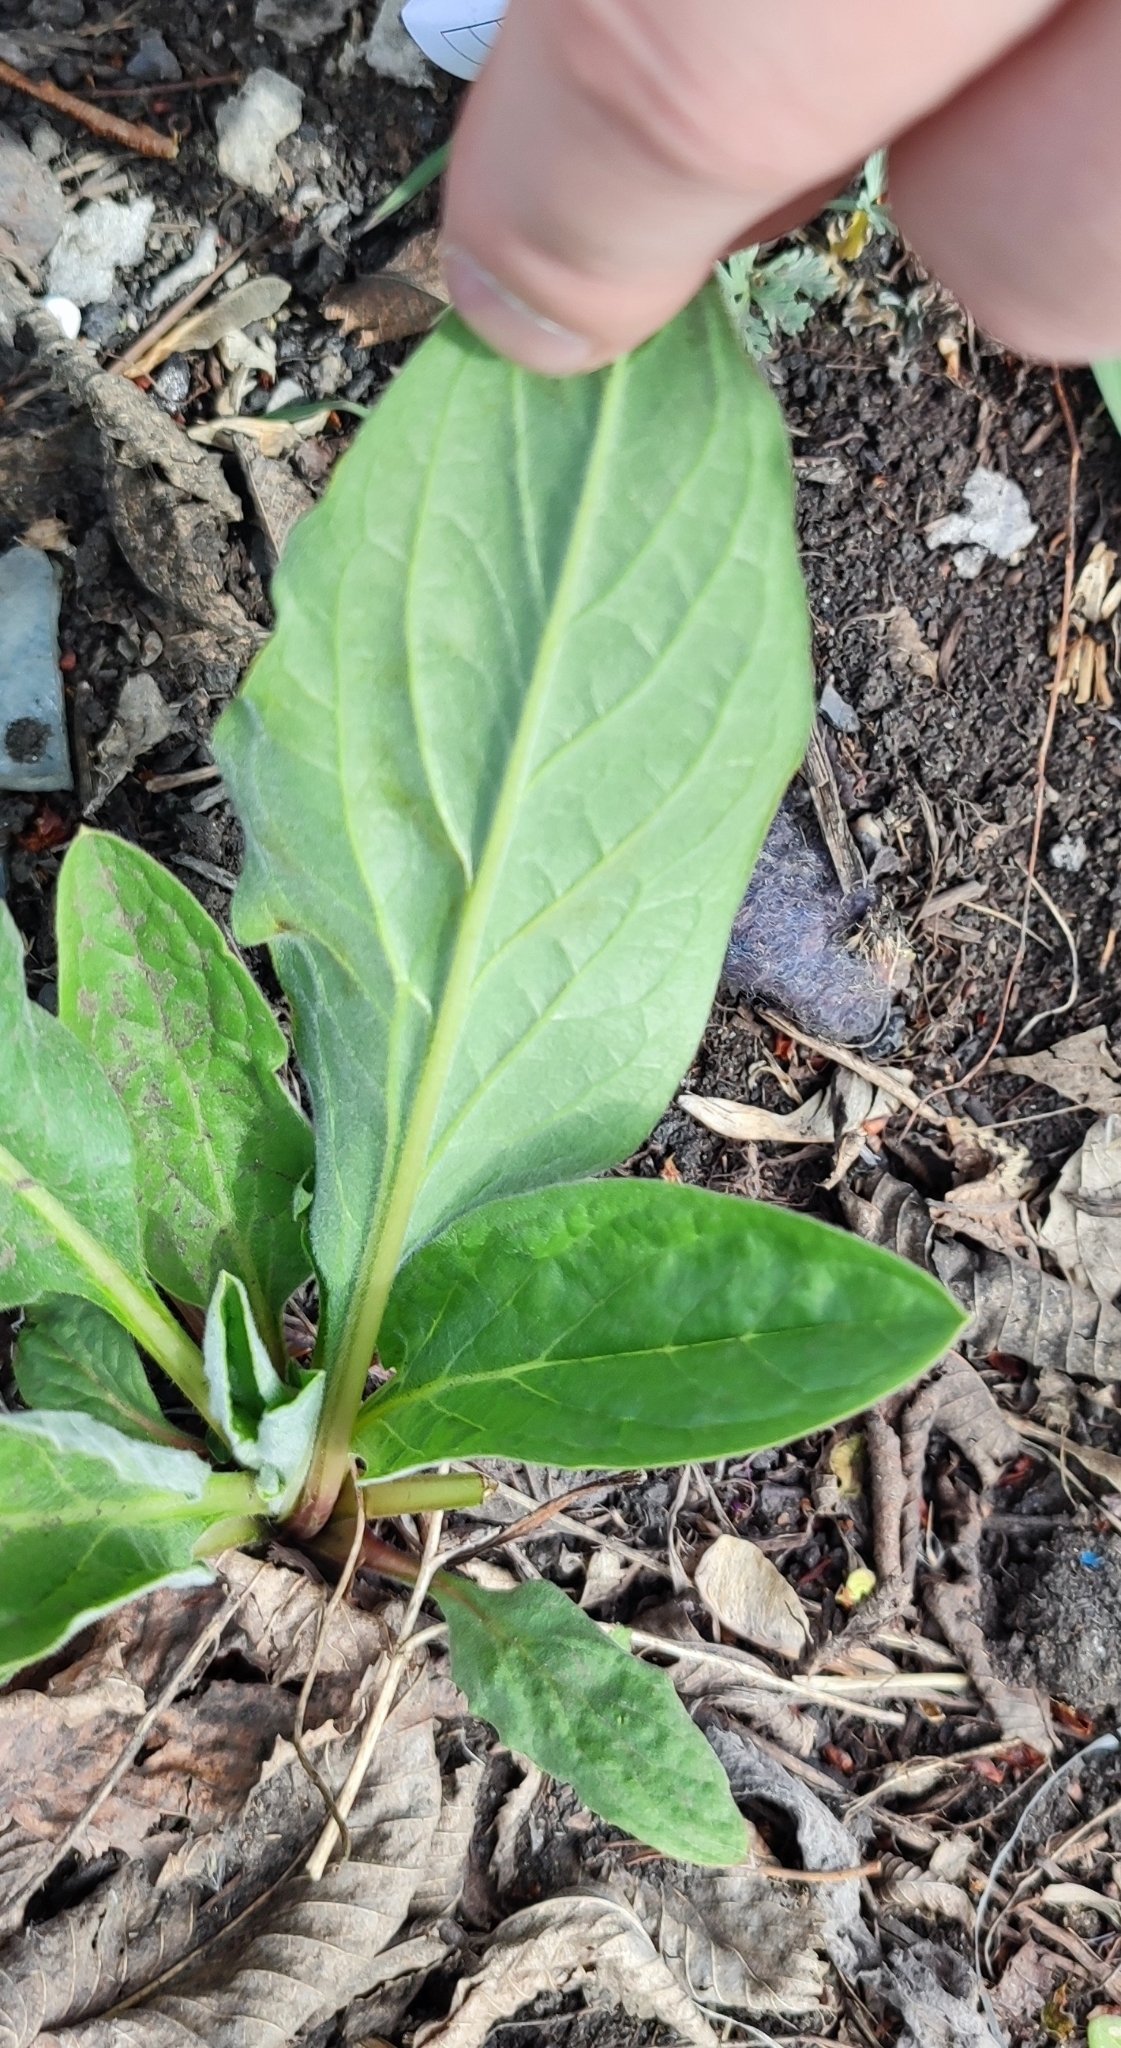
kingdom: Plantae
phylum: Tracheophyta
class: Magnoliopsida
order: Boraginales
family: Boraginaceae
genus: Cynoglossum
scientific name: Cynoglossum officinale
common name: Hound's-tongue
